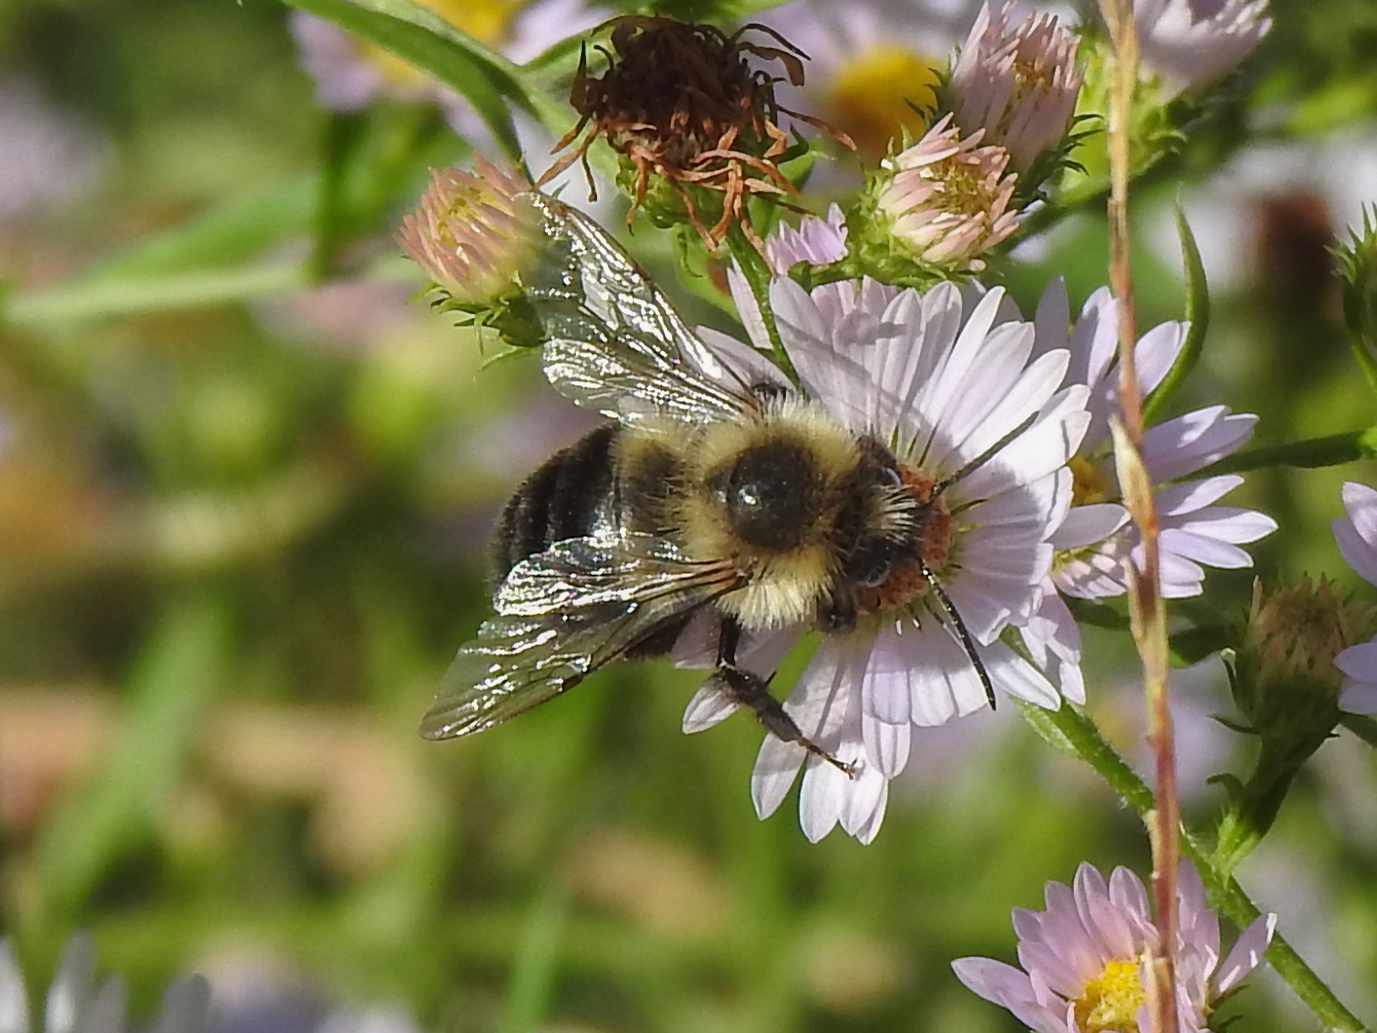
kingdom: Animalia
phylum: Arthropoda
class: Insecta
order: Hymenoptera
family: Apidae
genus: Bombus
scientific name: Bombus impatiens
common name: Common eastern bumble bee
